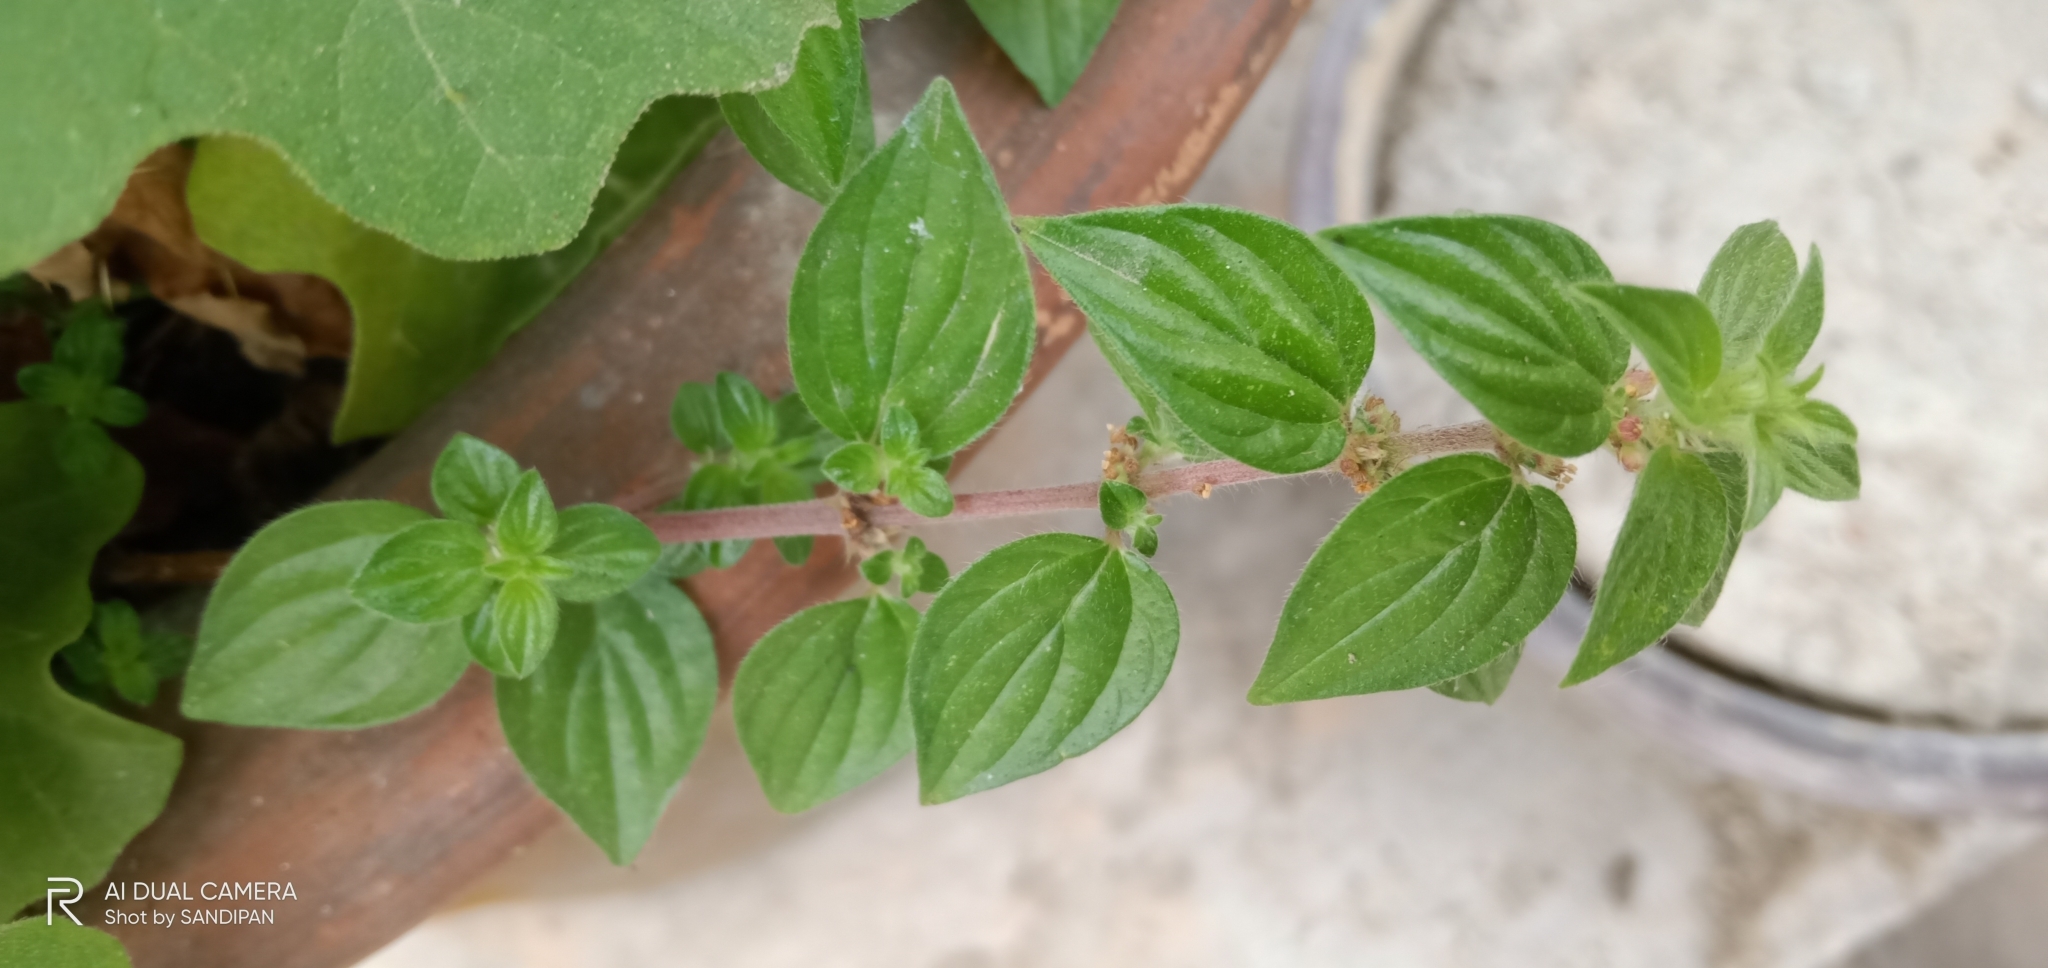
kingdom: Plantae
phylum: Tracheophyta
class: Magnoliopsida
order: Rosales
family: Urticaceae
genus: Pouzolzia
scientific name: Pouzolzia zeylanica
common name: Graceful pouzolzsbush
